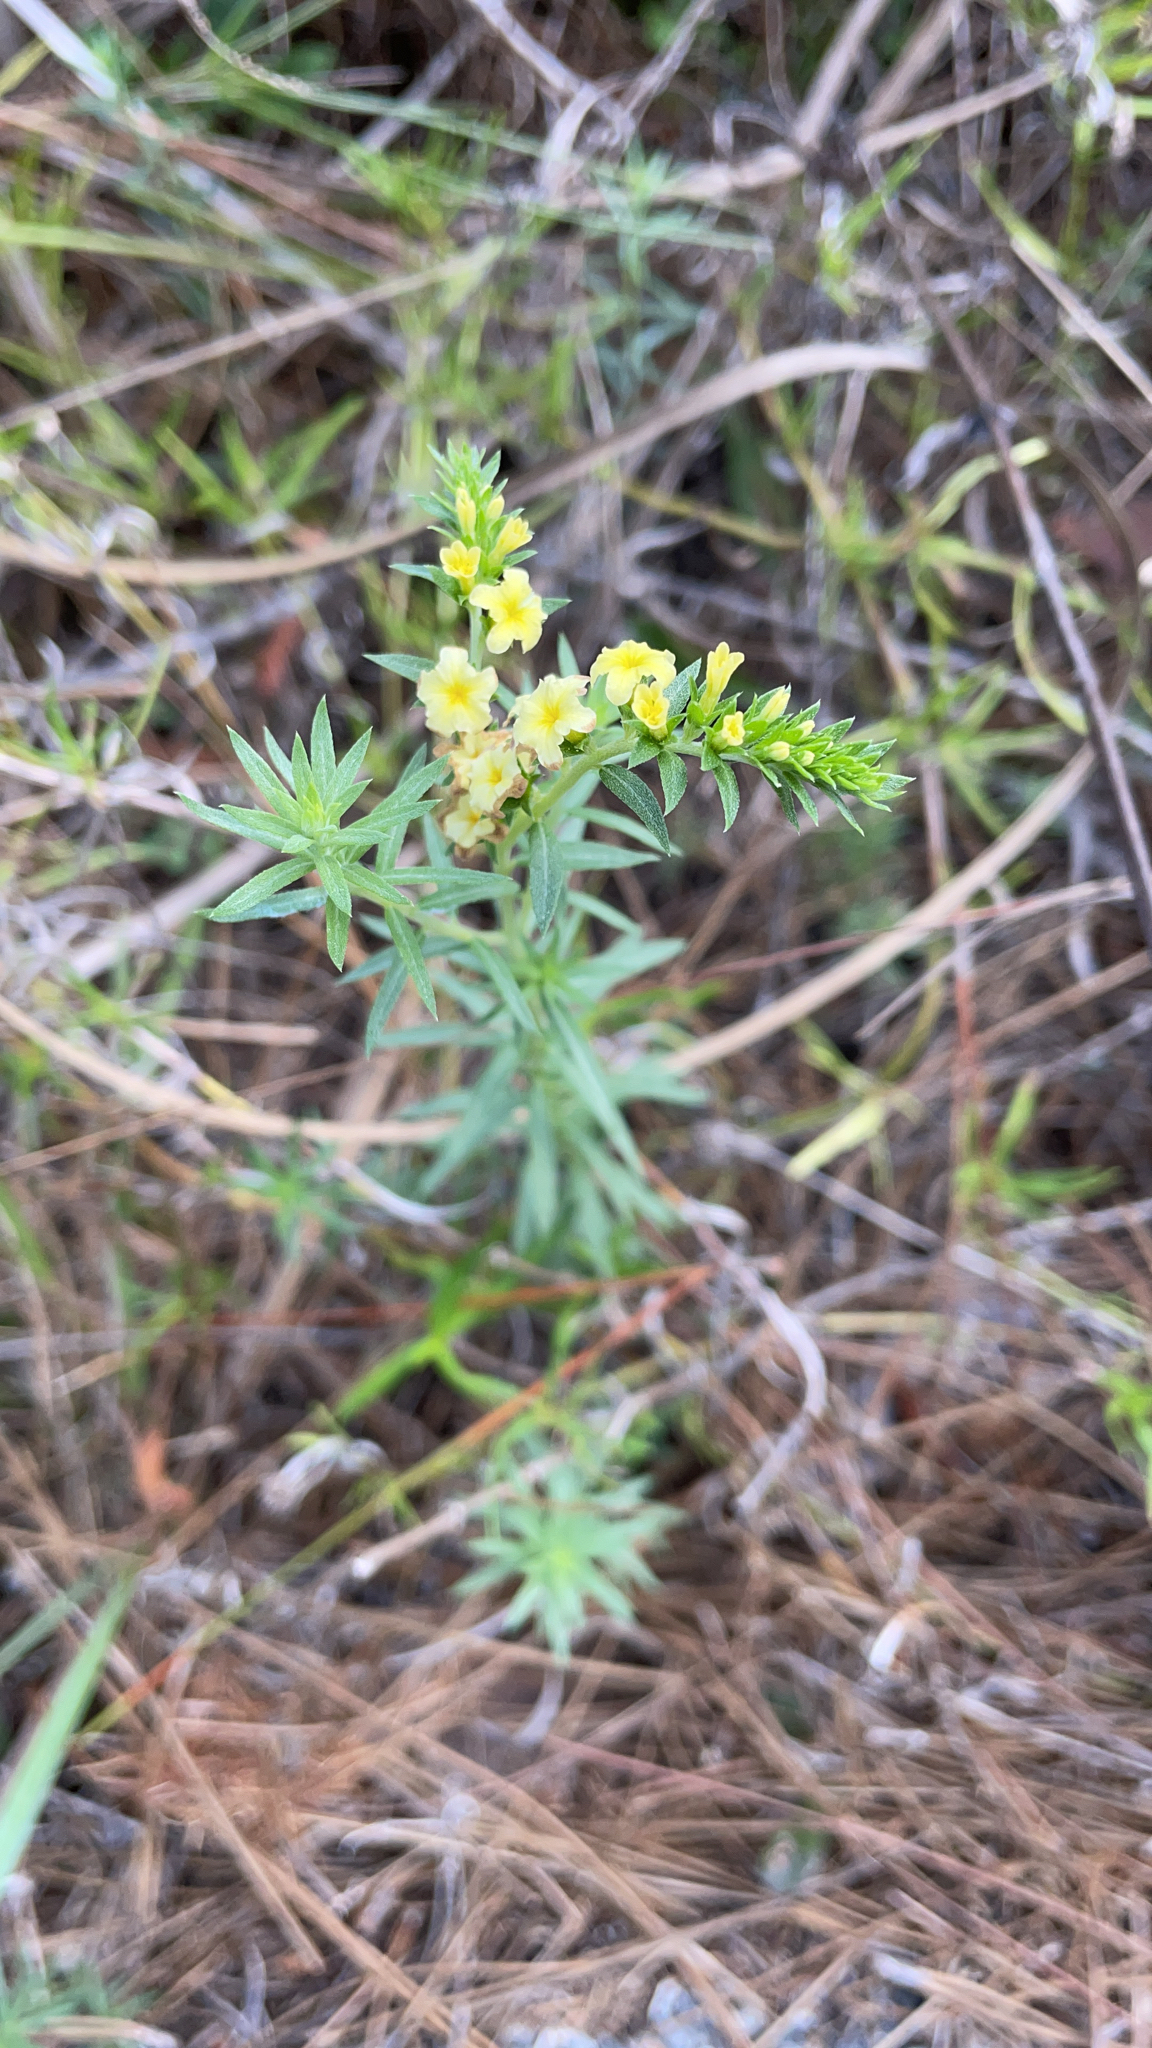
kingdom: Plantae
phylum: Tracheophyta
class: Magnoliopsida
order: Boraginales
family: Heliotropiaceae
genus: Euploca
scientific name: Euploca polyphylla
